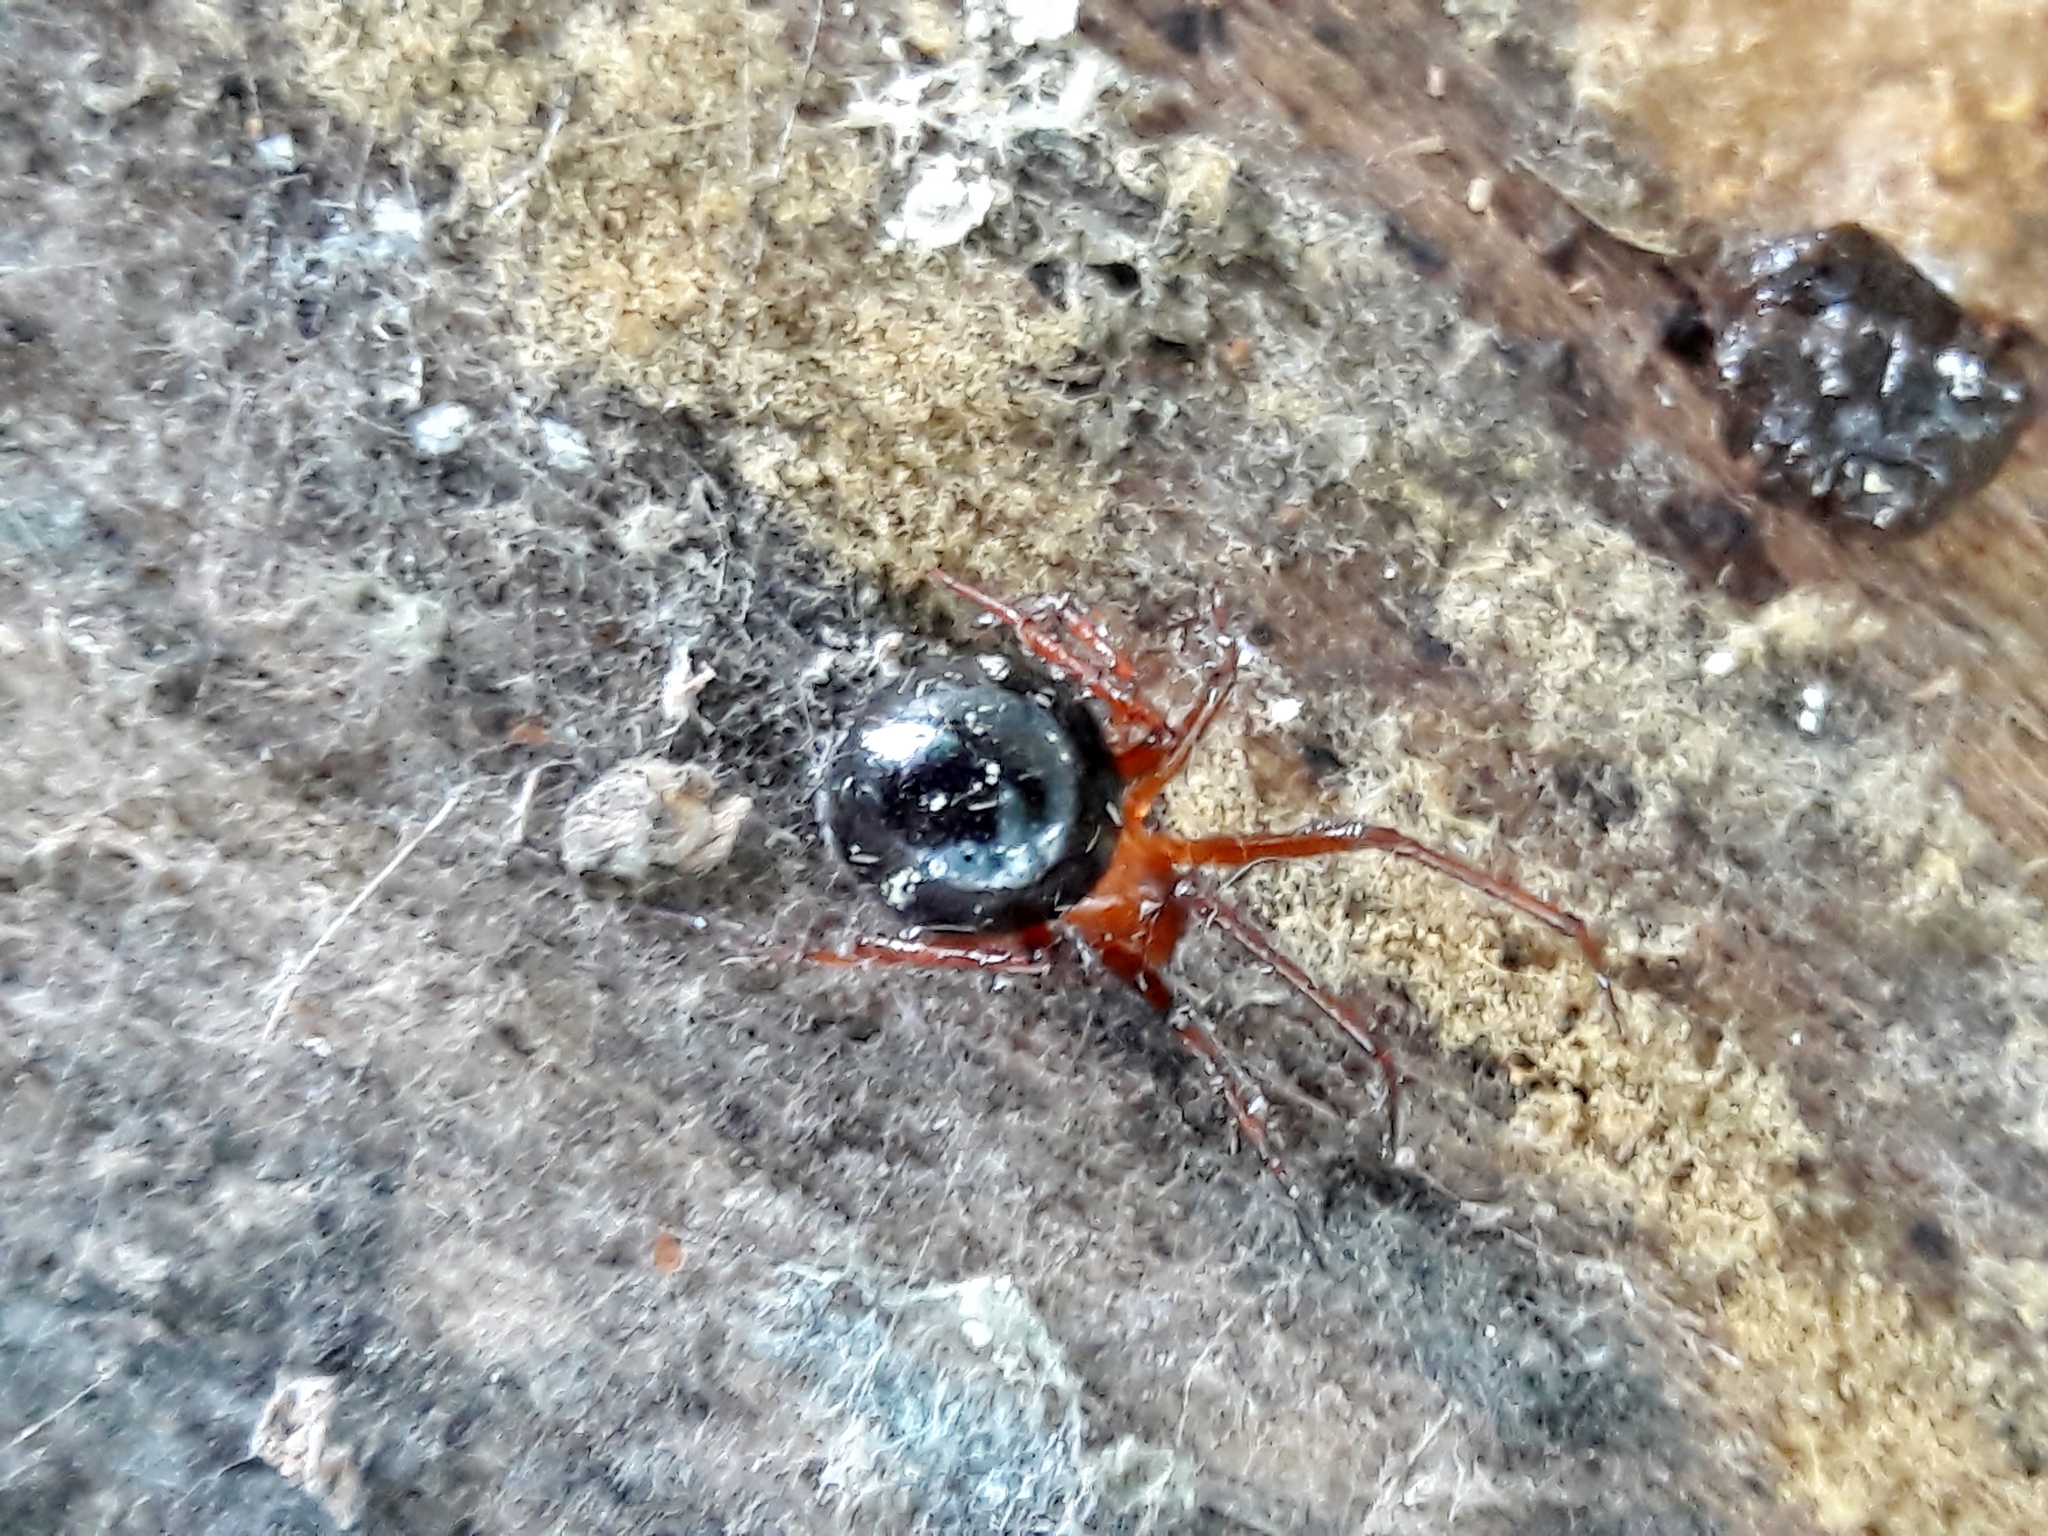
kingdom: Animalia
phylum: Arthropoda
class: Arachnida
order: Araneae
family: Theridiidae
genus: Nesticodes
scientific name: Nesticodes rufipes
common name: Cobweb spiders
